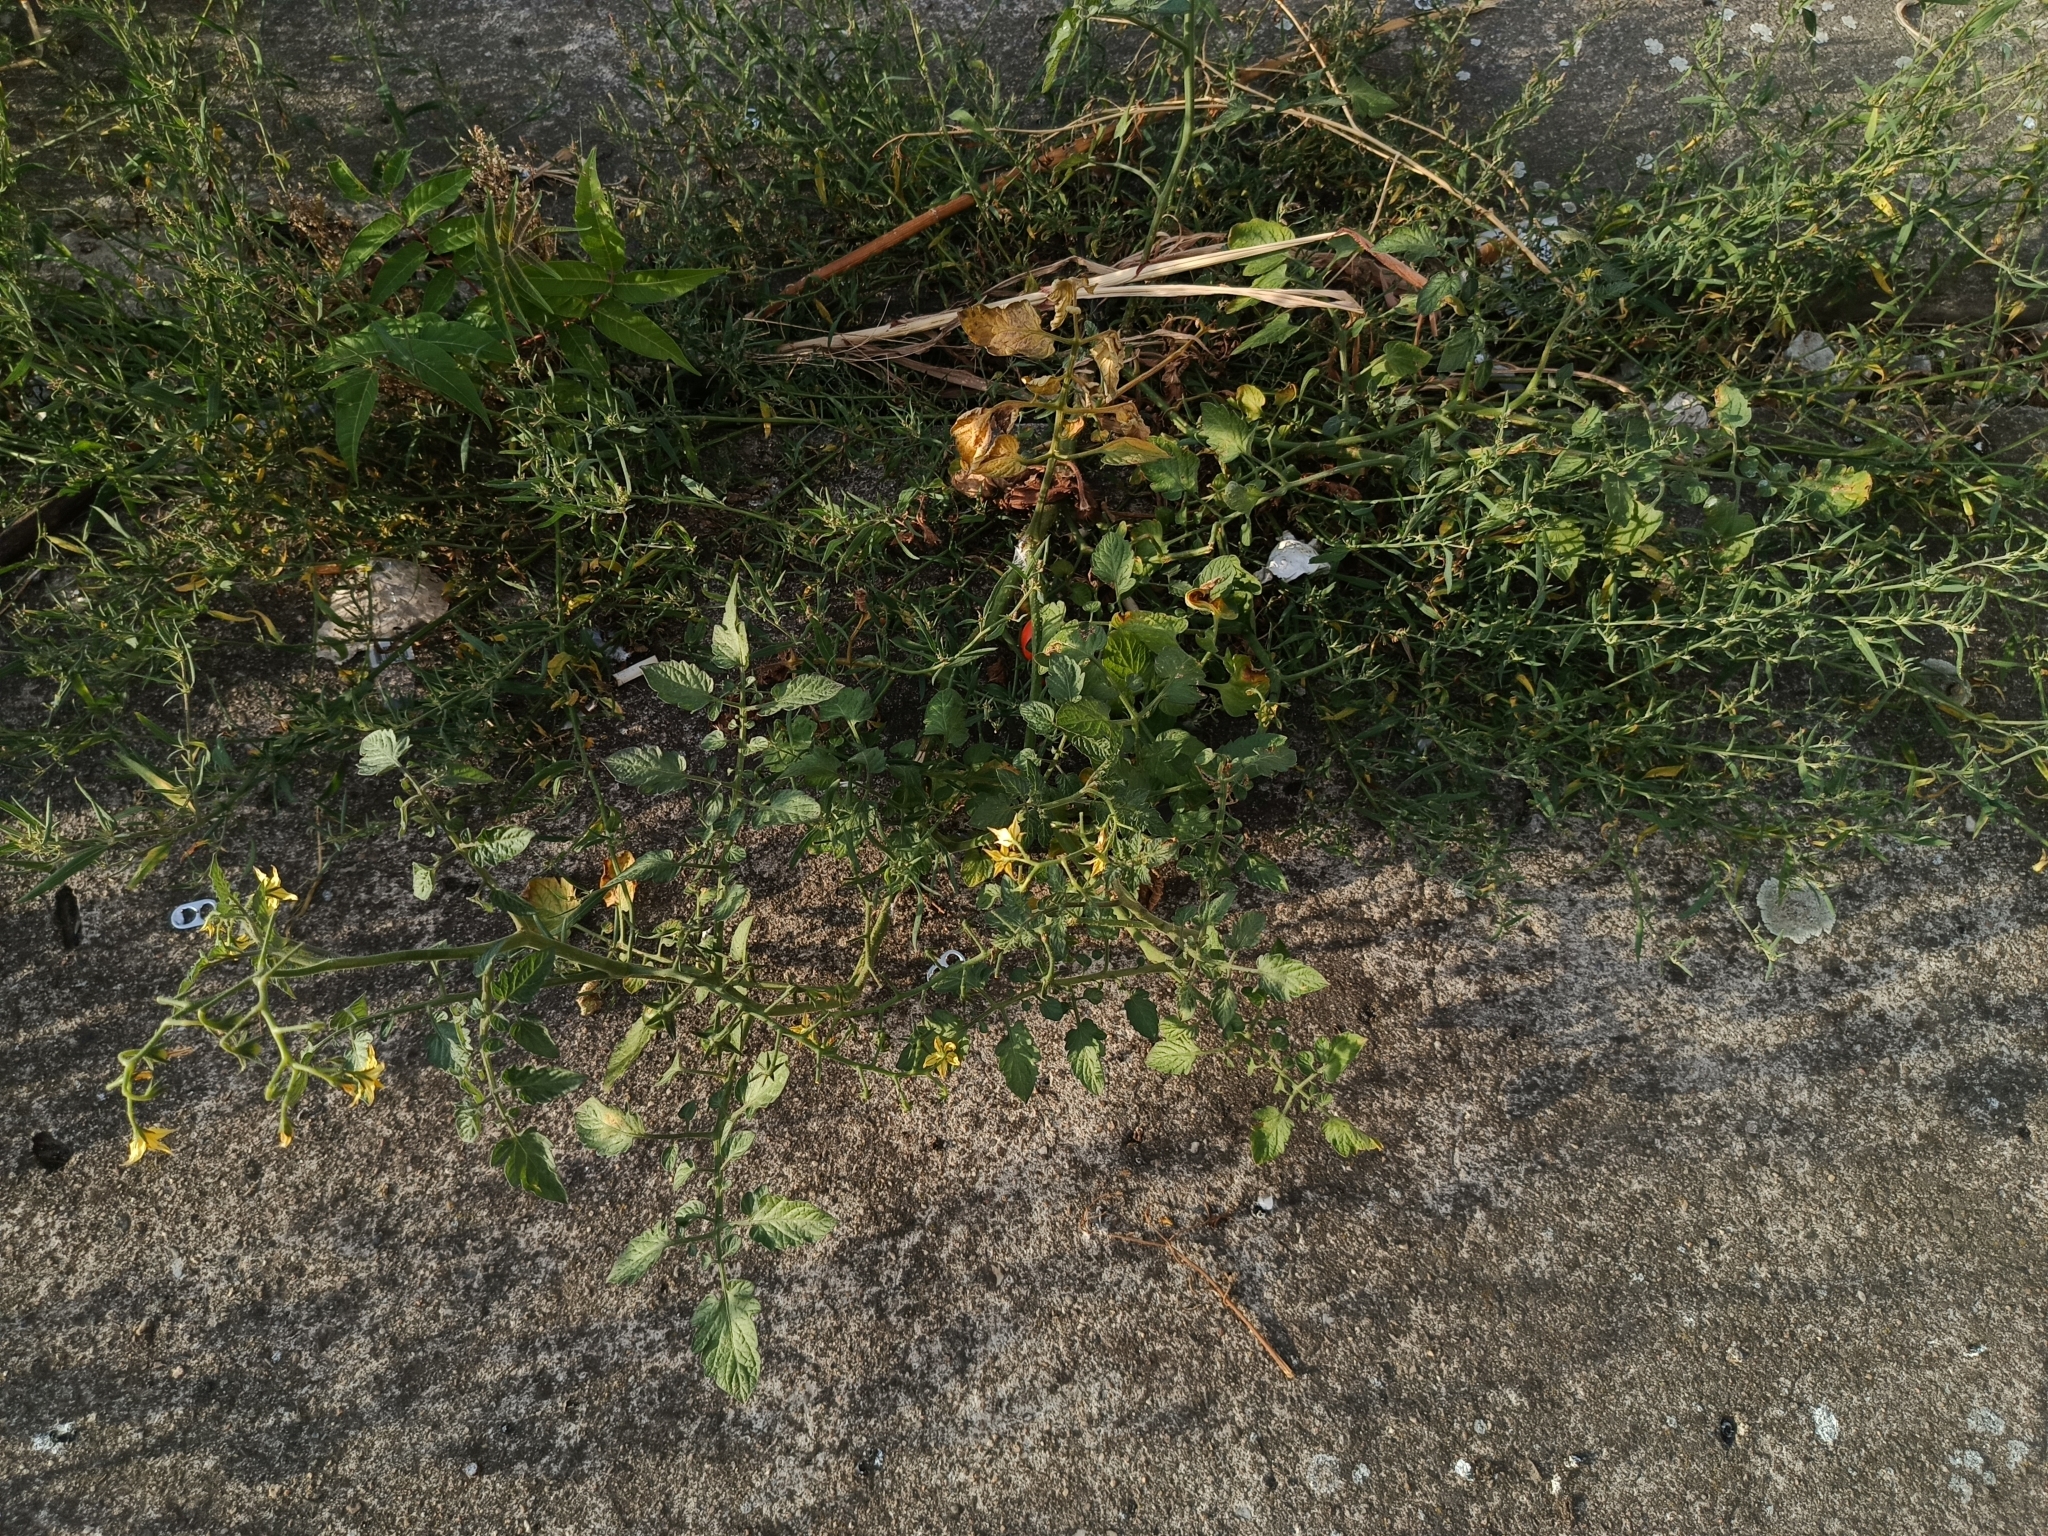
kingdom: Plantae
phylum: Tracheophyta
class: Magnoliopsida
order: Solanales
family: Solanaceae
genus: Solanum
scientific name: Solanum lycopersicum
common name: Garden tomato
